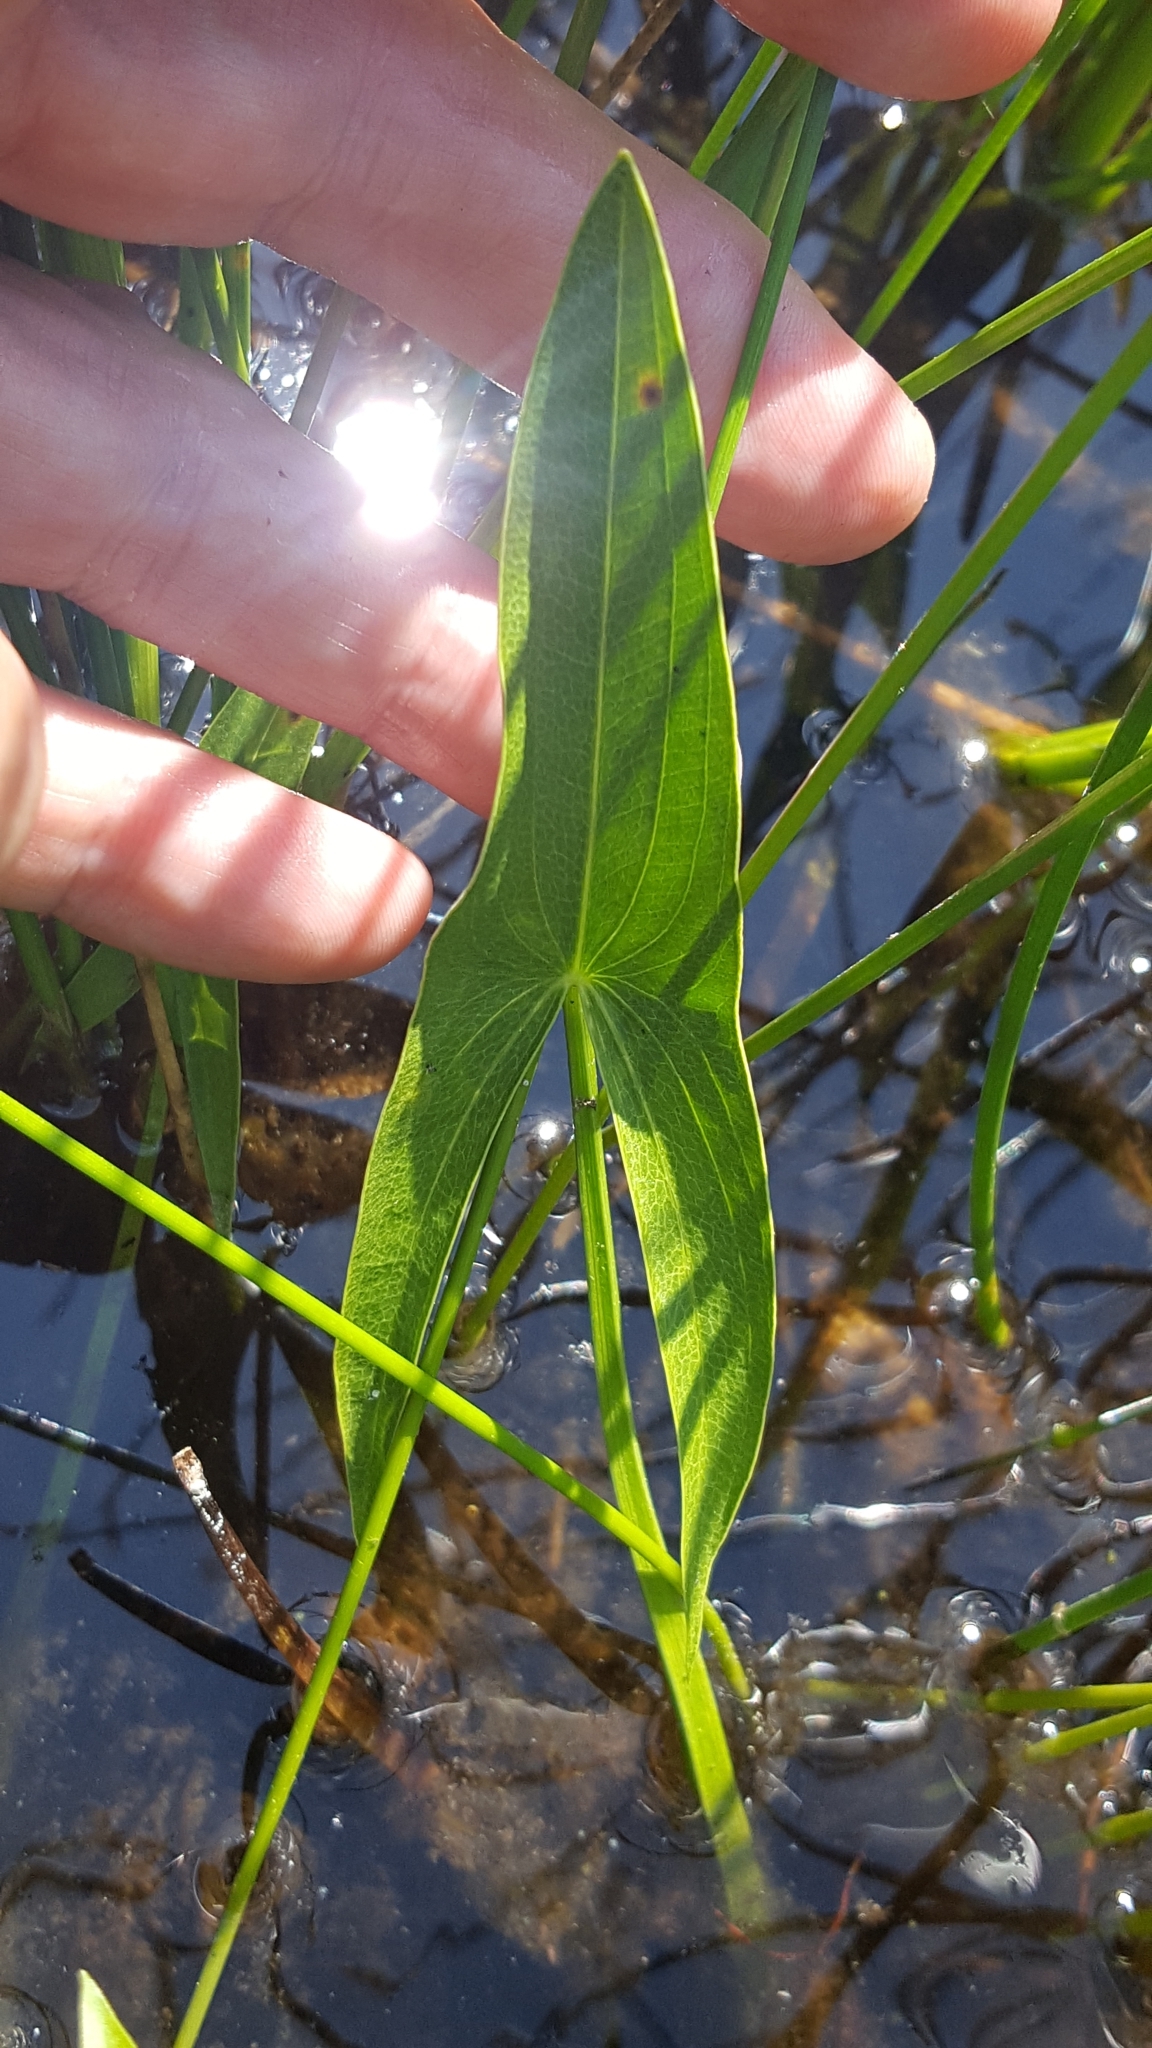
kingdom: Plantae
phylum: Tracheophyta
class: Liliopsida
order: Alismatales
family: Alismataceae
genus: Sagittaria
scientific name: Sagittaria latifolia
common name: Duck-potato
